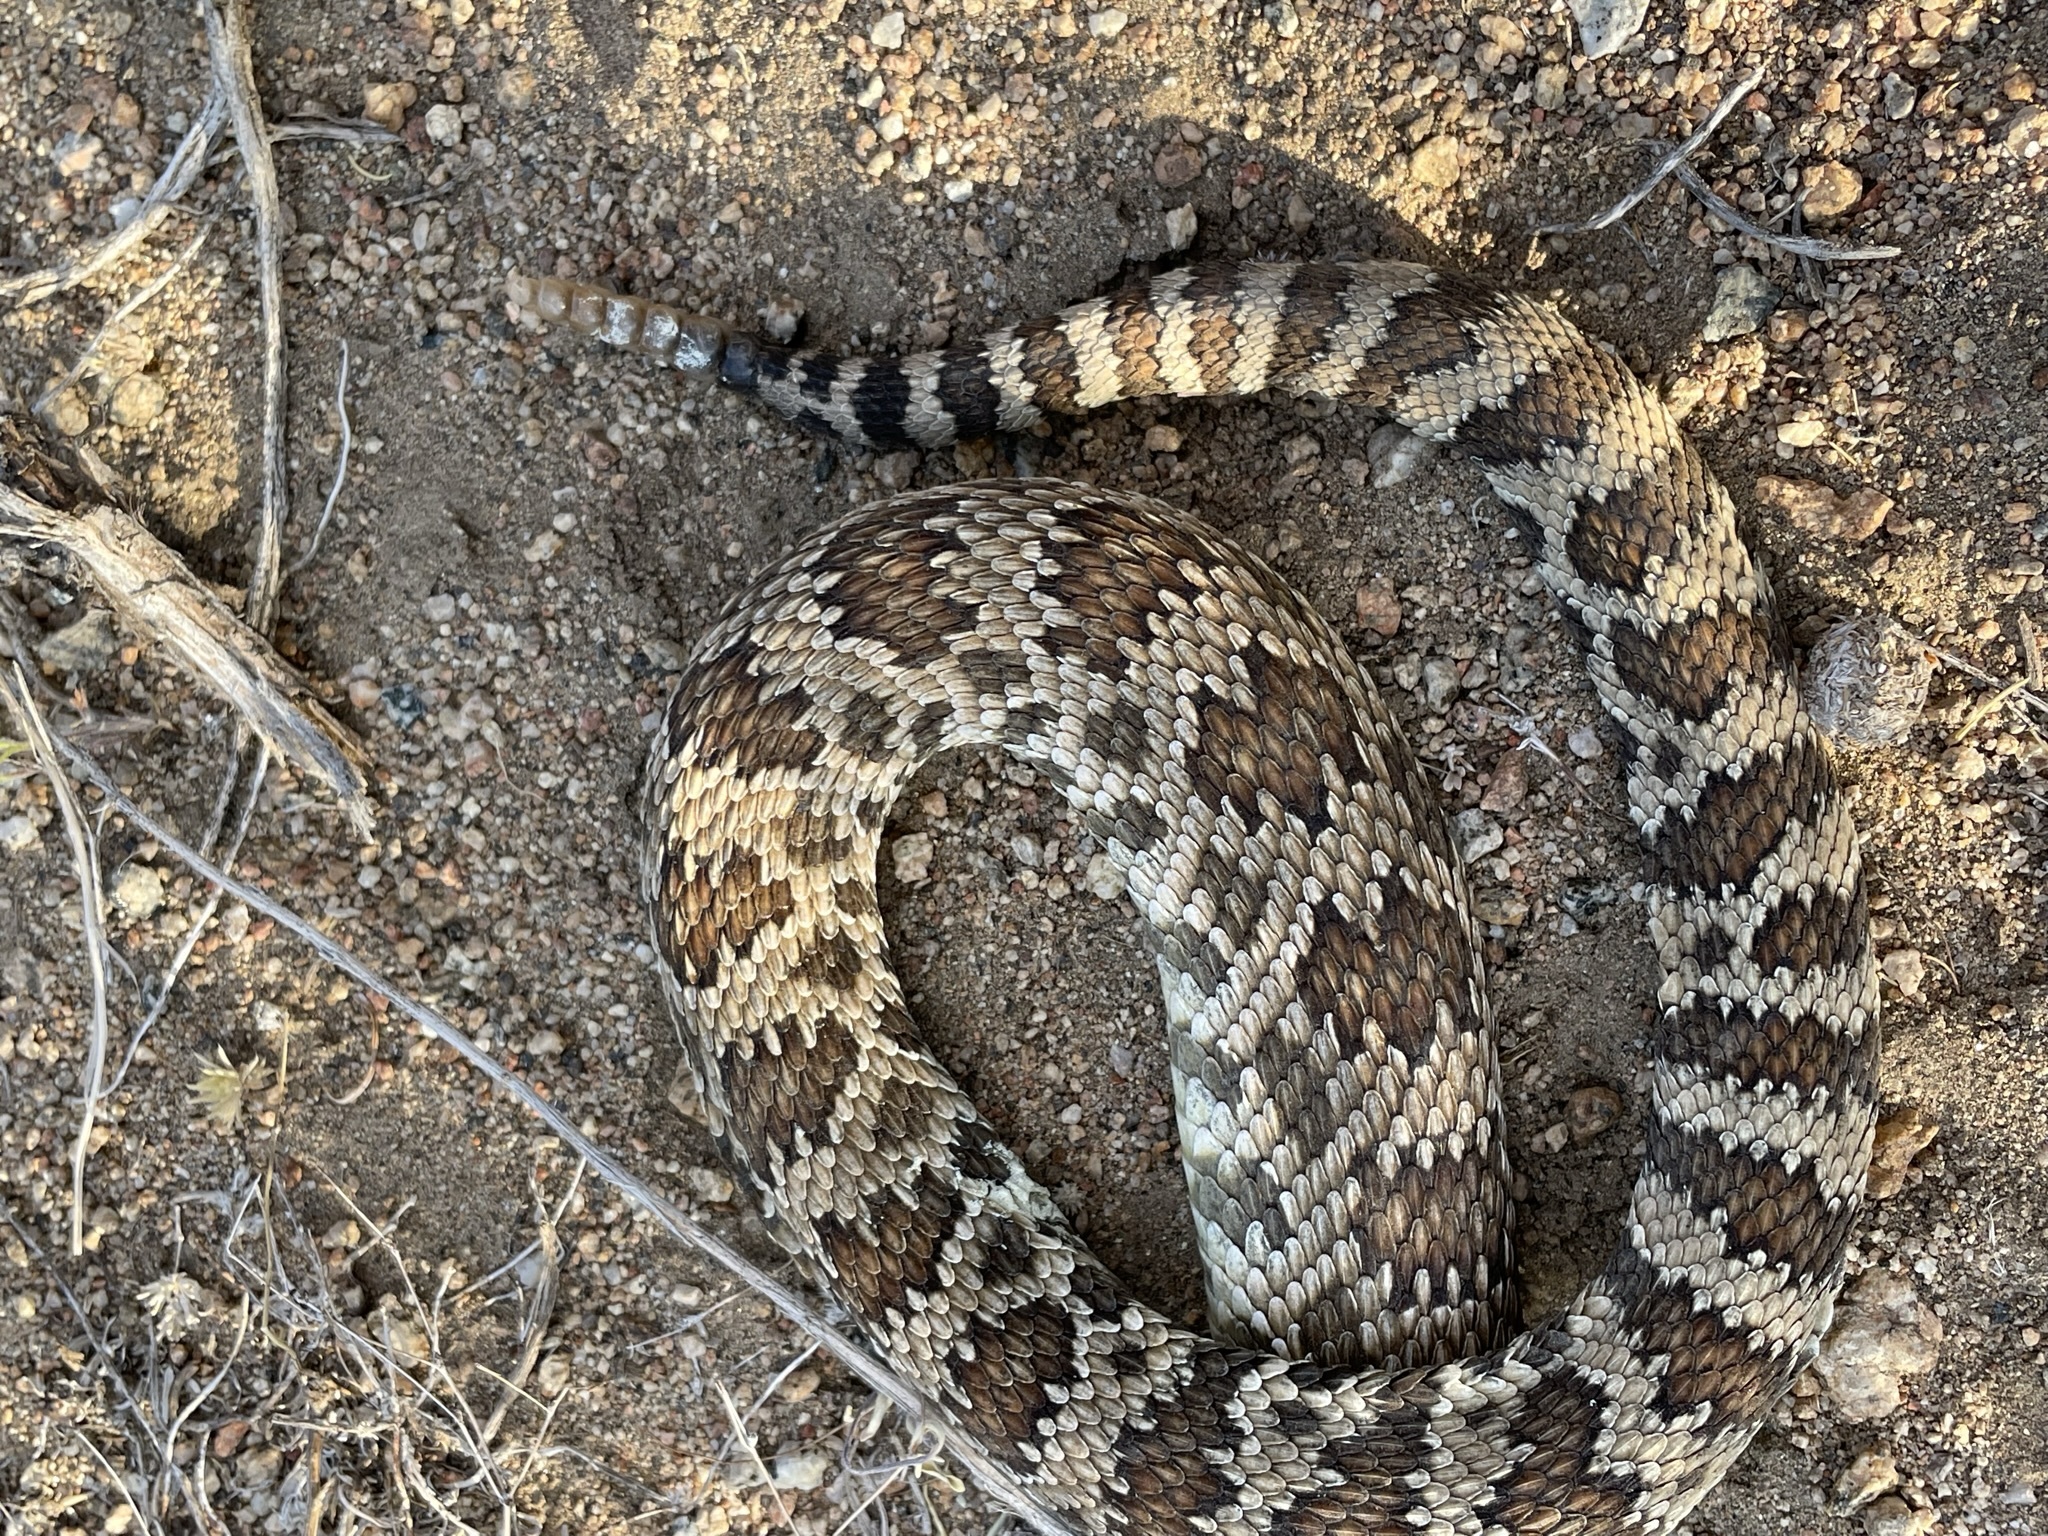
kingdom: Animalia
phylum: Chordata
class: Squamata
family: Viperidae
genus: Crotalus
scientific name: Crotalus oreganus
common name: Abyssus
